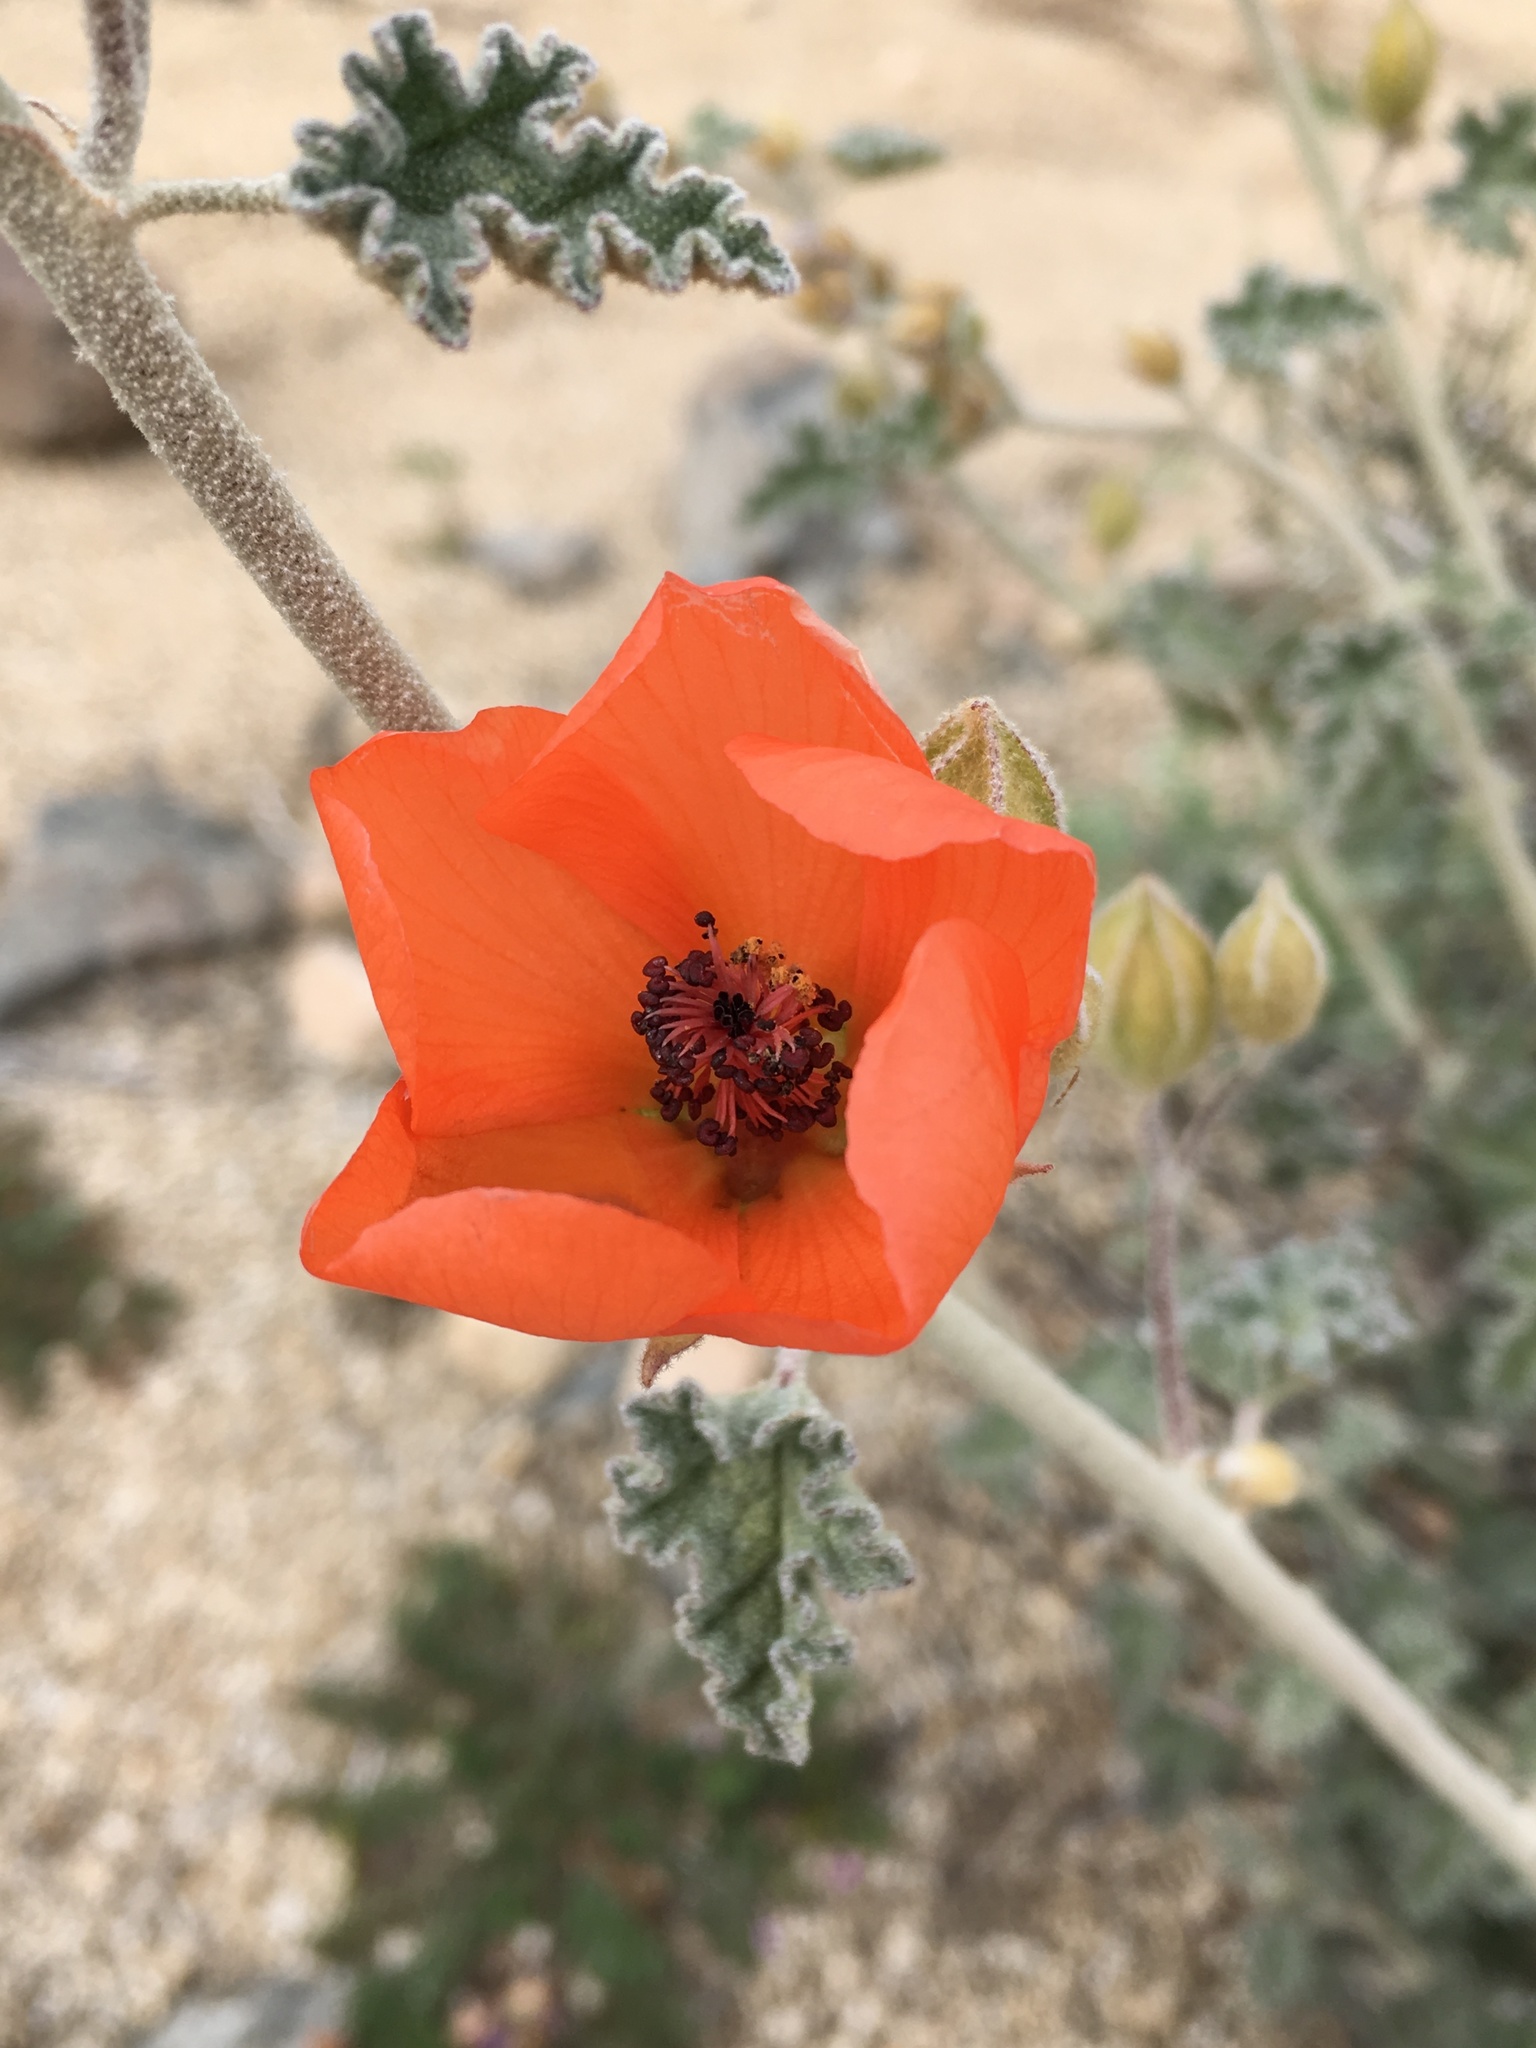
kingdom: Plantae
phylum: Tracheophyta
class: Magnoliopsida
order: Malvales
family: Malvaceae
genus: Sphaeralcea
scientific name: Sphaeralcea ambigua
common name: Apricot globe-mallow
